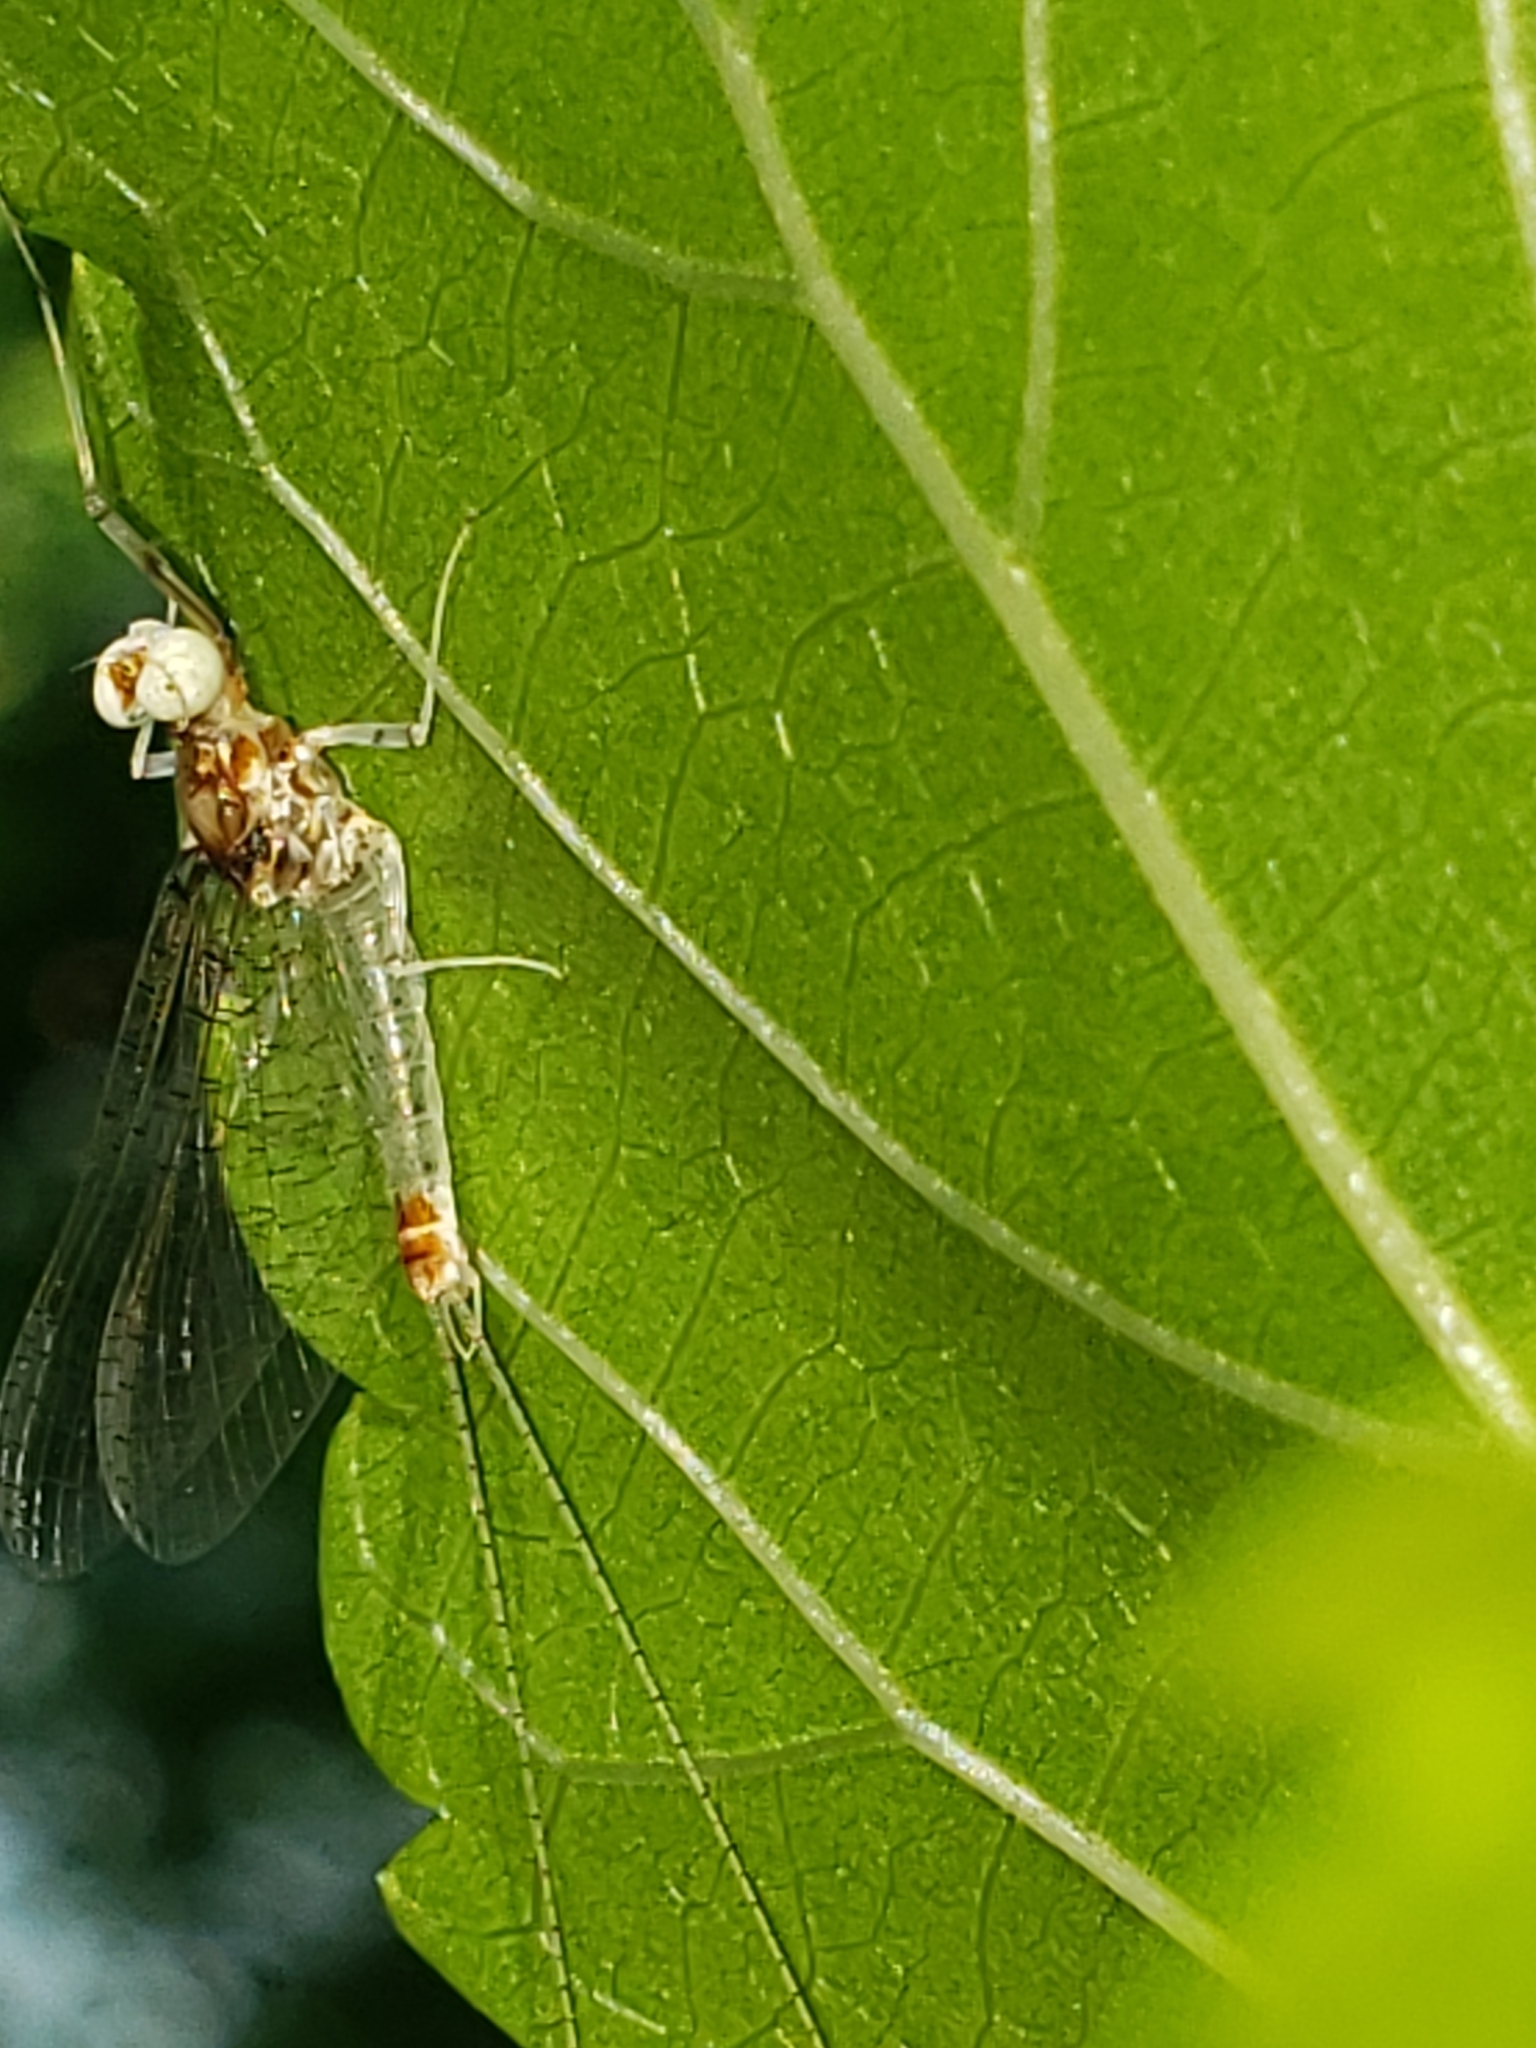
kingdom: Animalia
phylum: Arthropoda
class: Insecta
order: Ephemeroptera
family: Heptageniidae
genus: Maccaffertium
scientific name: Maccaffertium modestum
